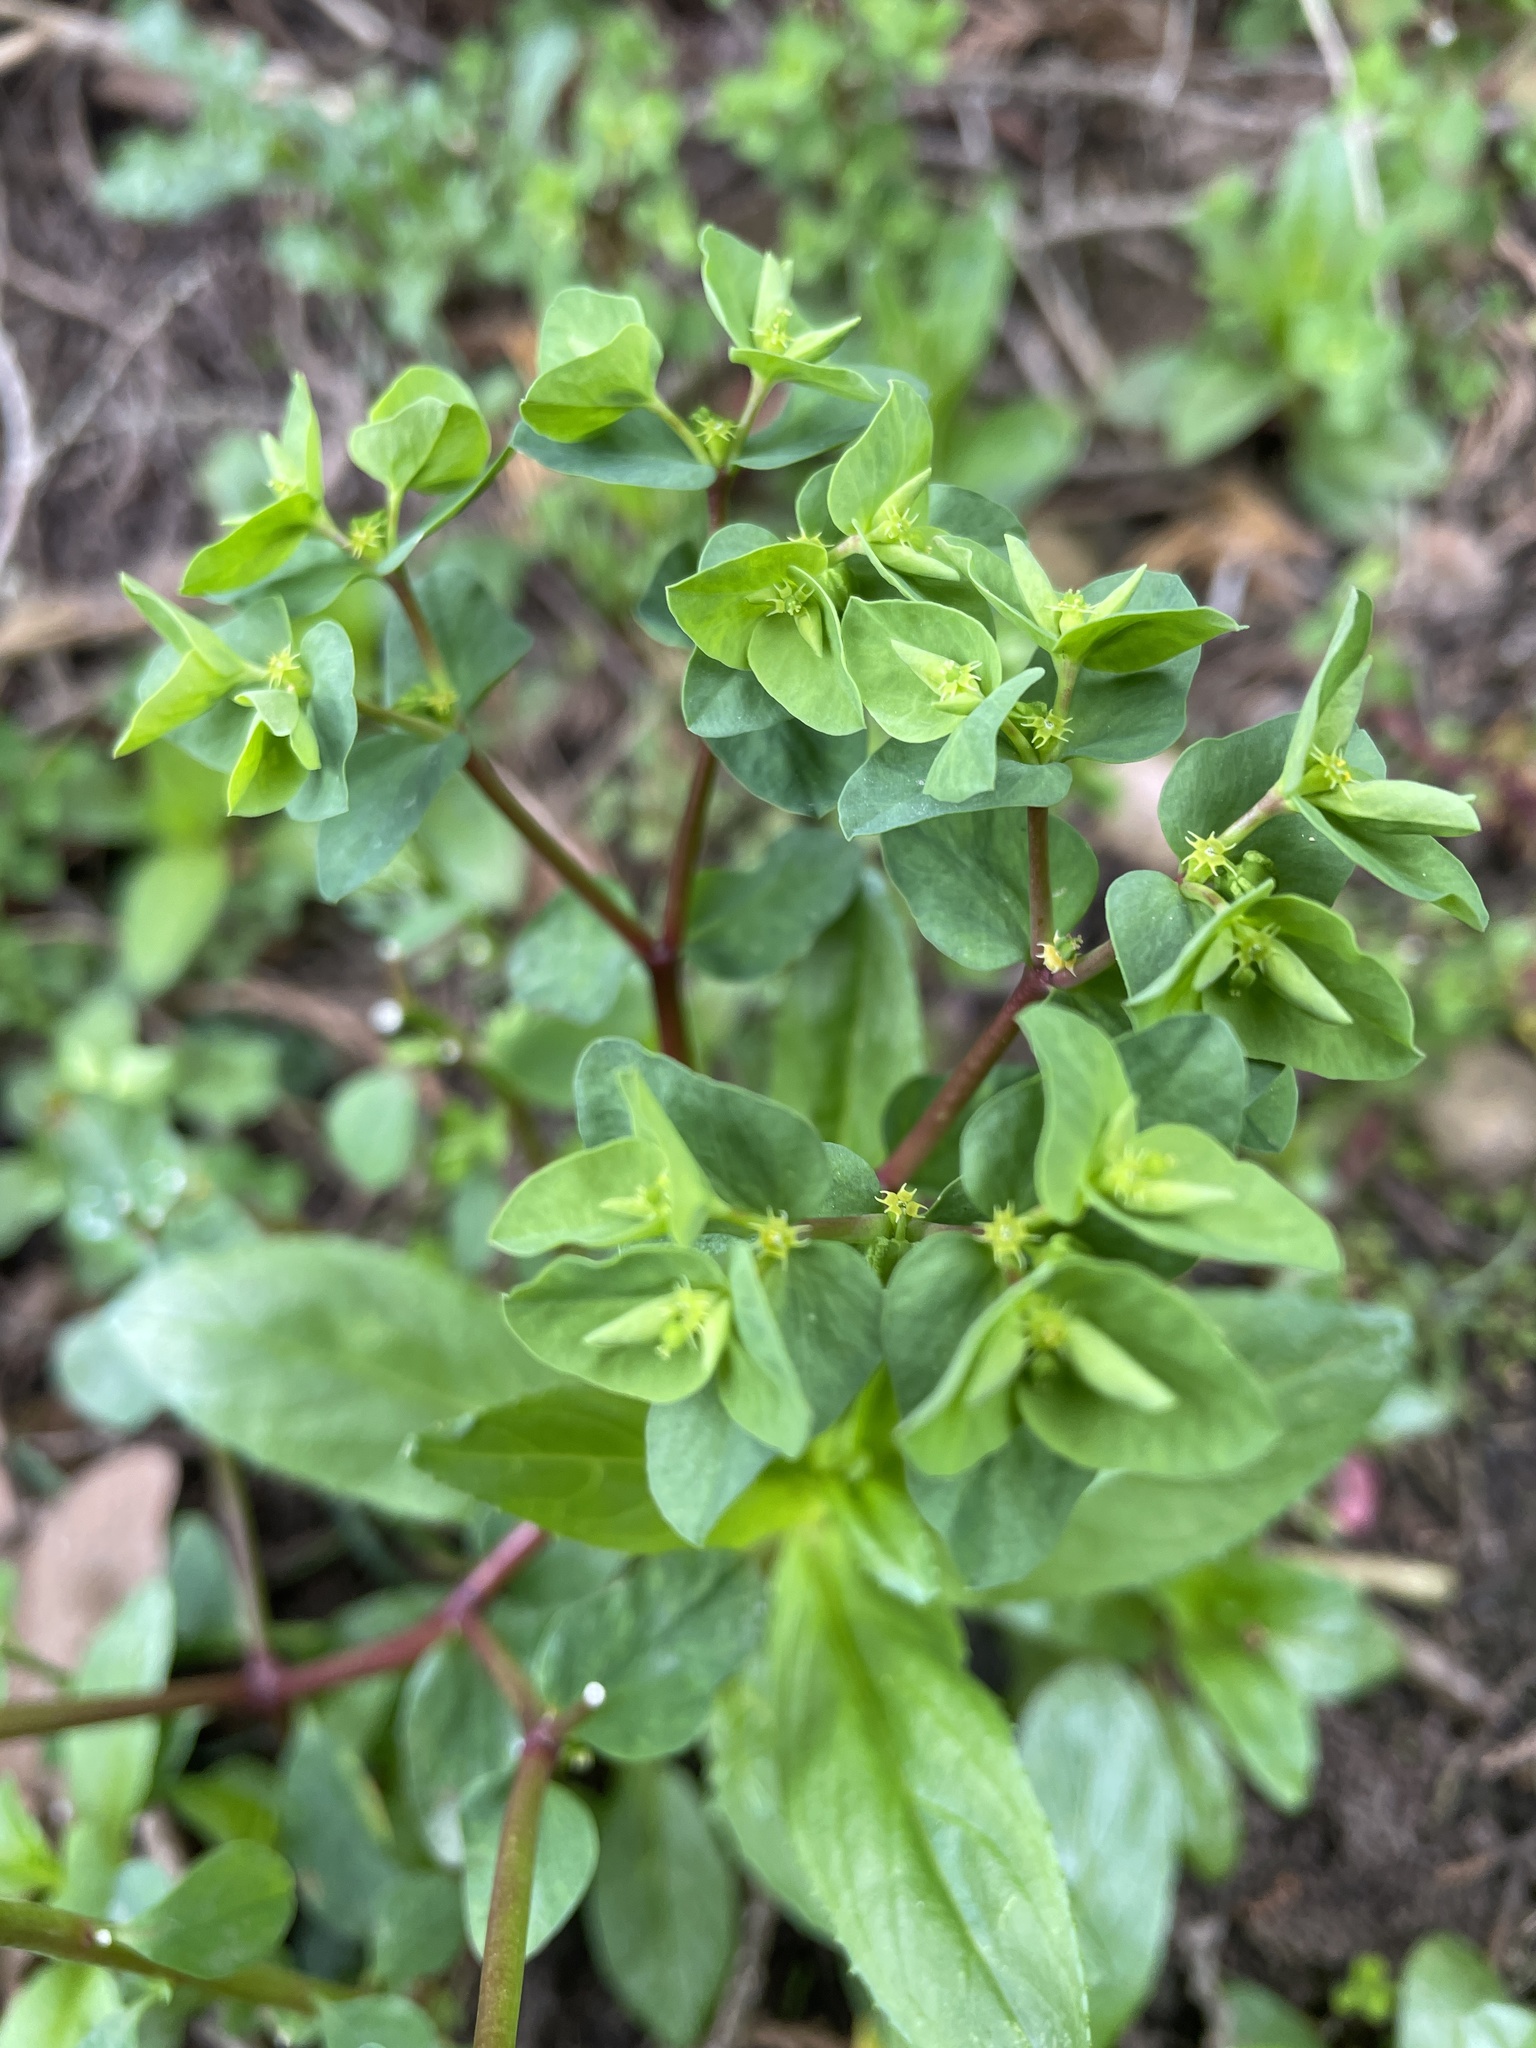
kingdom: Plantae
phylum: Tracheophyta
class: Magnoliopsida
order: Malpighiales
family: Euphorbiaceae
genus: Euphorbia
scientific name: Euphorbia peplus
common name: Petty spurge
